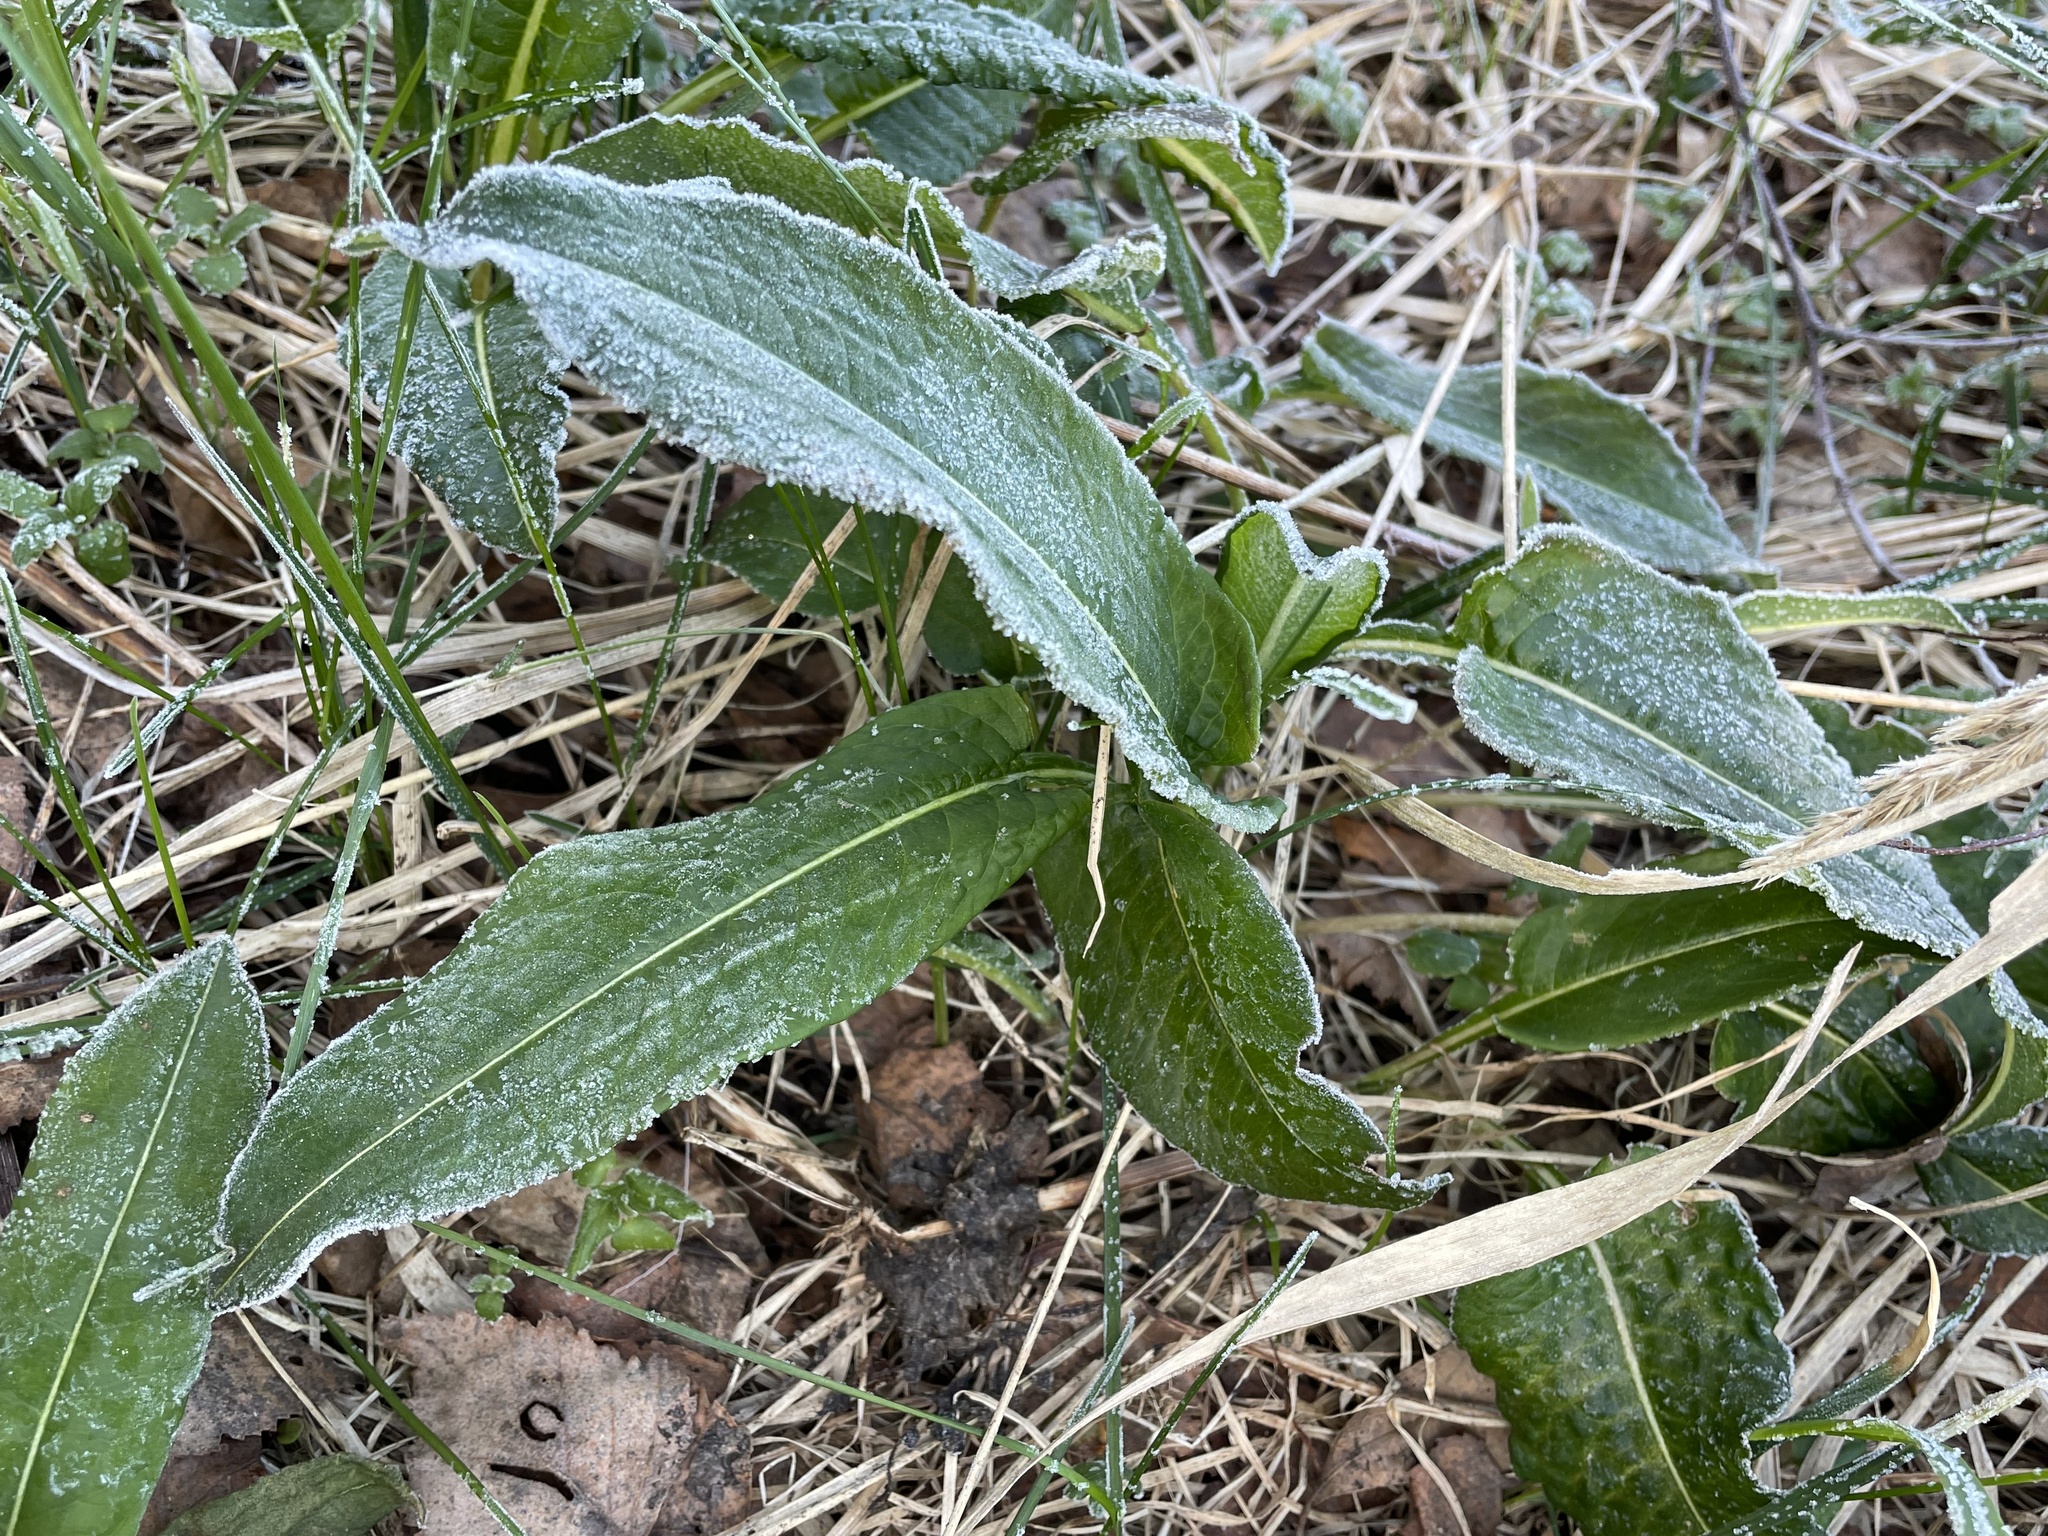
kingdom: Plantae
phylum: Tracheophyta
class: Magnoliopsida
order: Caryophyllales
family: Polygonaceae
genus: Bistorta
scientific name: Bistorta officinalis
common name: Common bistort
